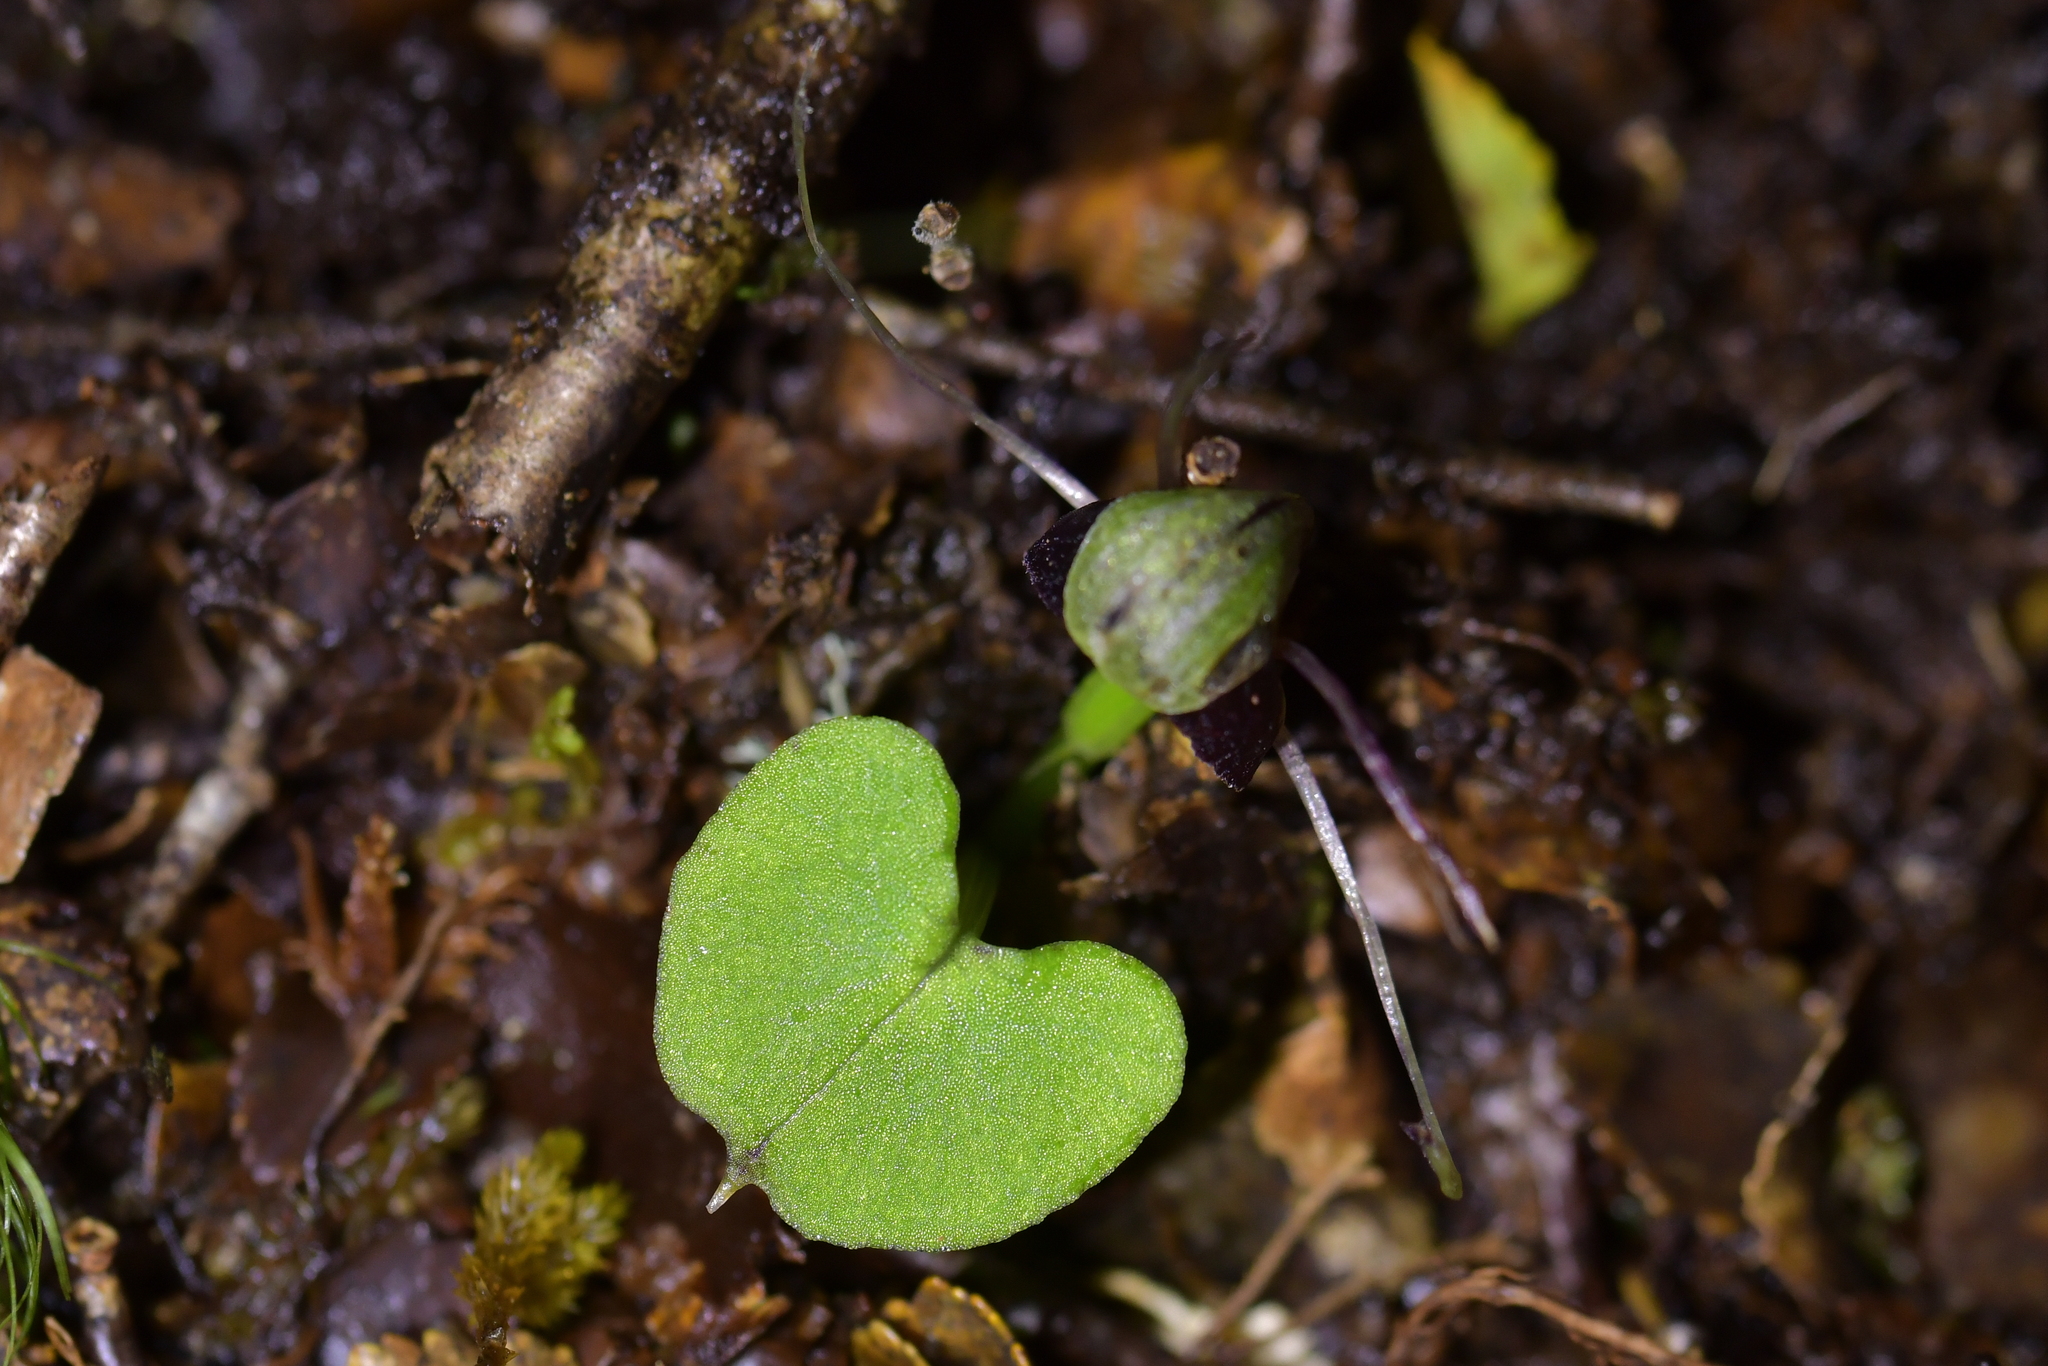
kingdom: Plantae
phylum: Tracheophyta
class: Liliopsida
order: Asparagales
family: Orchidaceae
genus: Corybas
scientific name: Corybas vitreus
